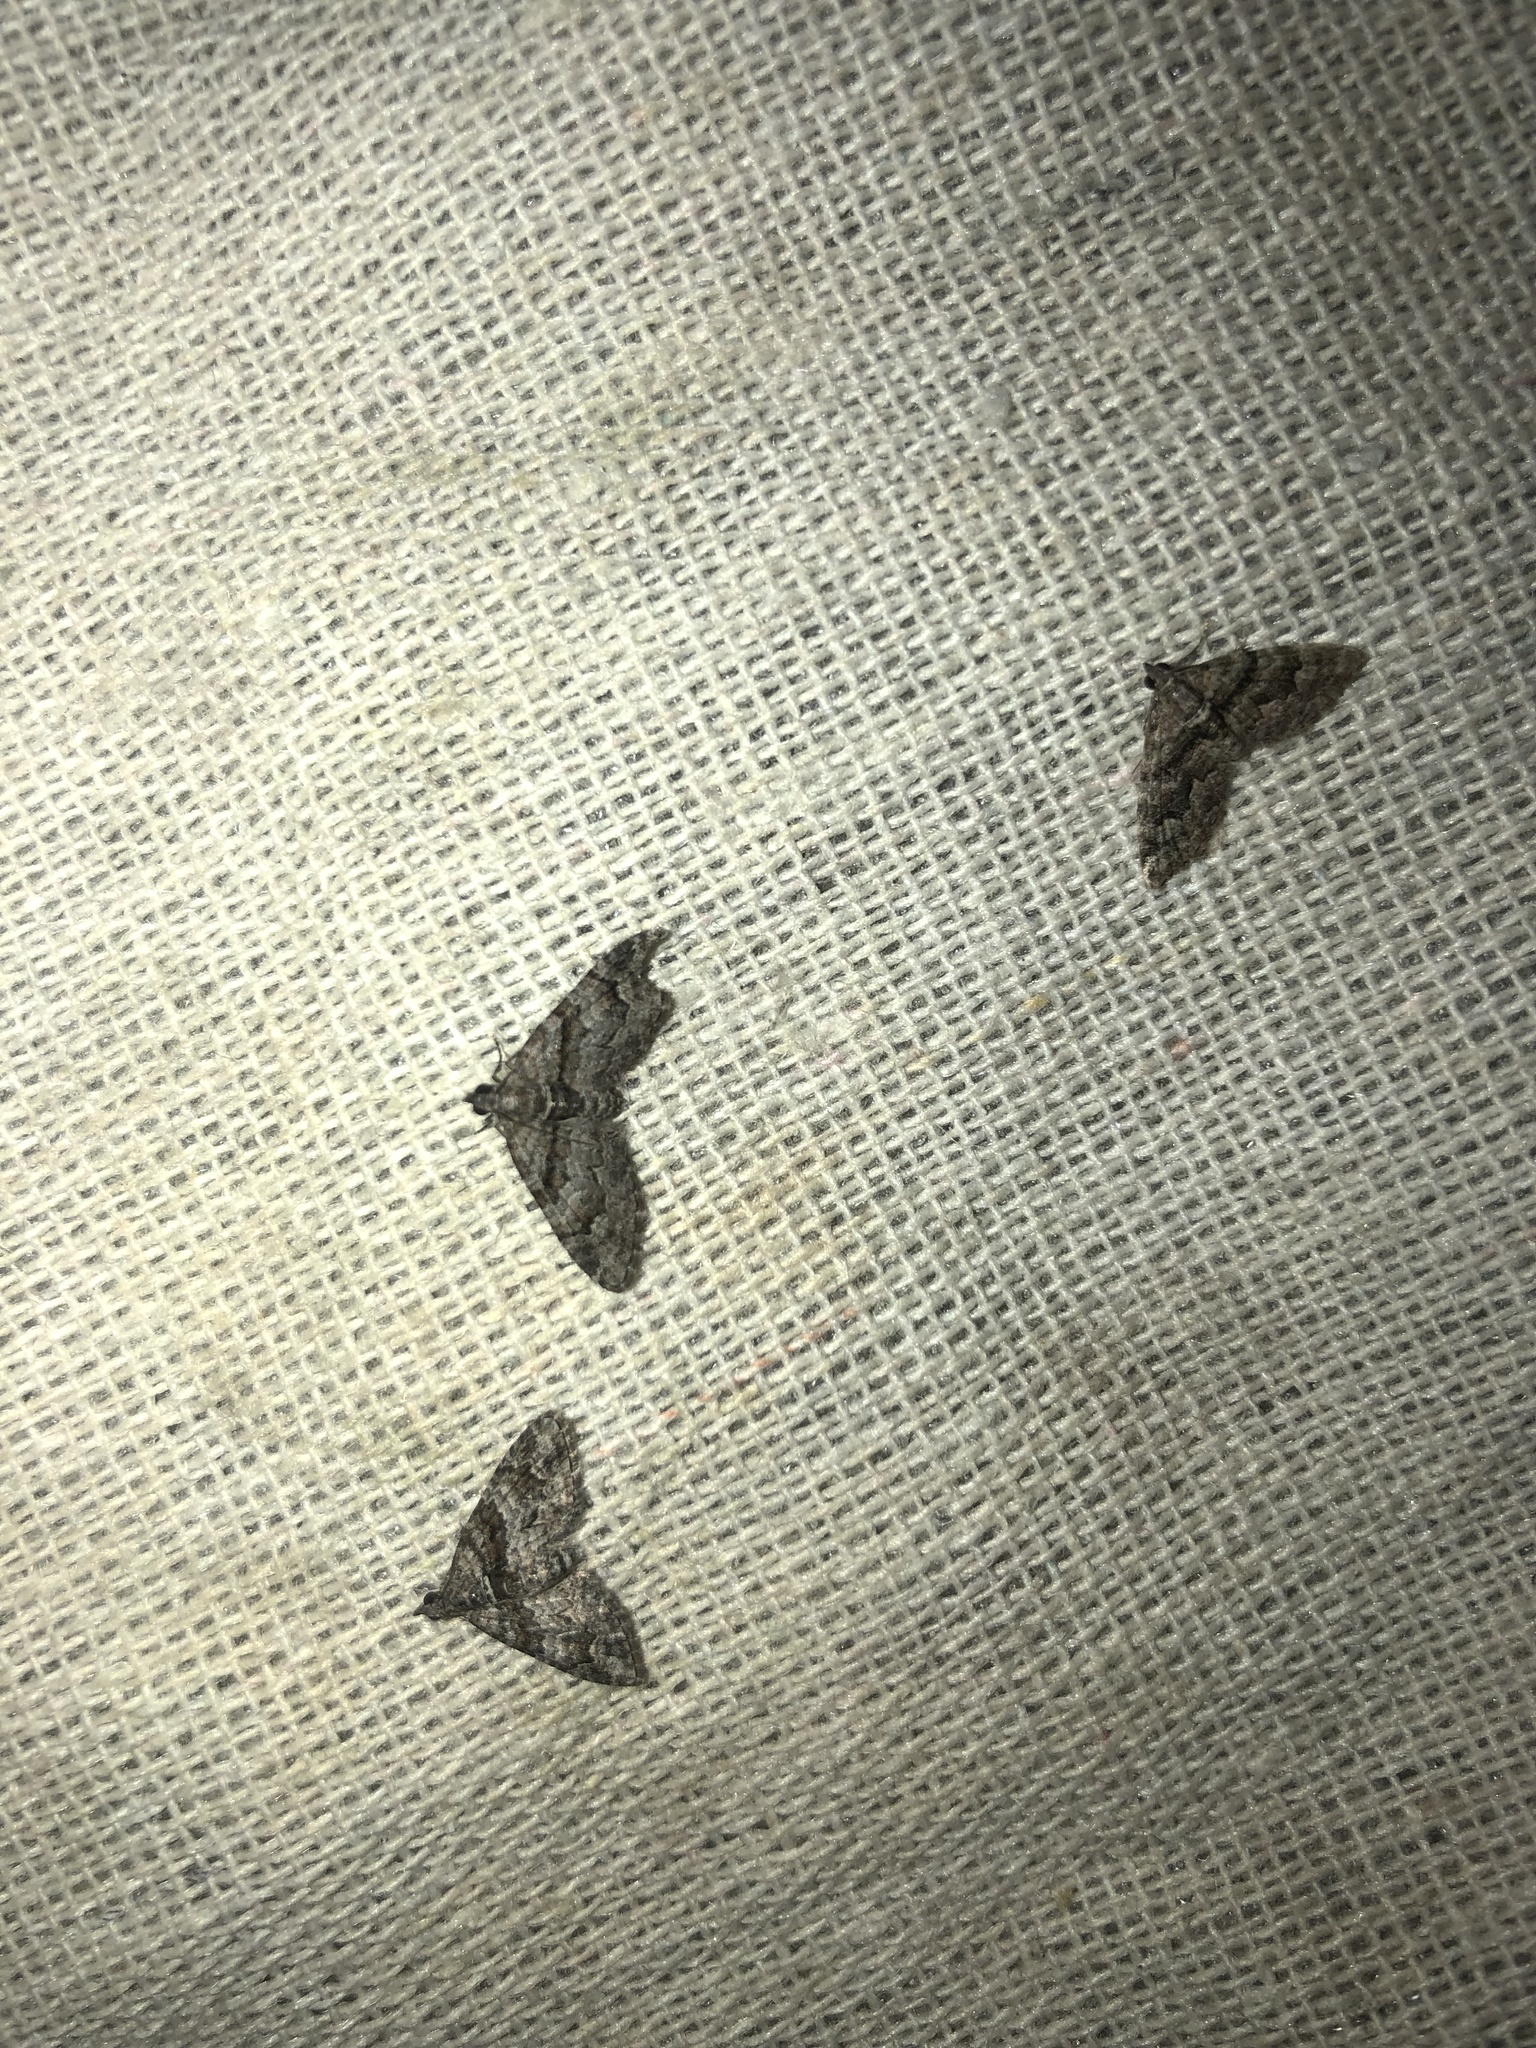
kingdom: Animalia
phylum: Arthropoda
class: Insecta
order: Lepidoptera
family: Geometridae
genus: Phrissogonus
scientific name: Phrissogonus laticostata
